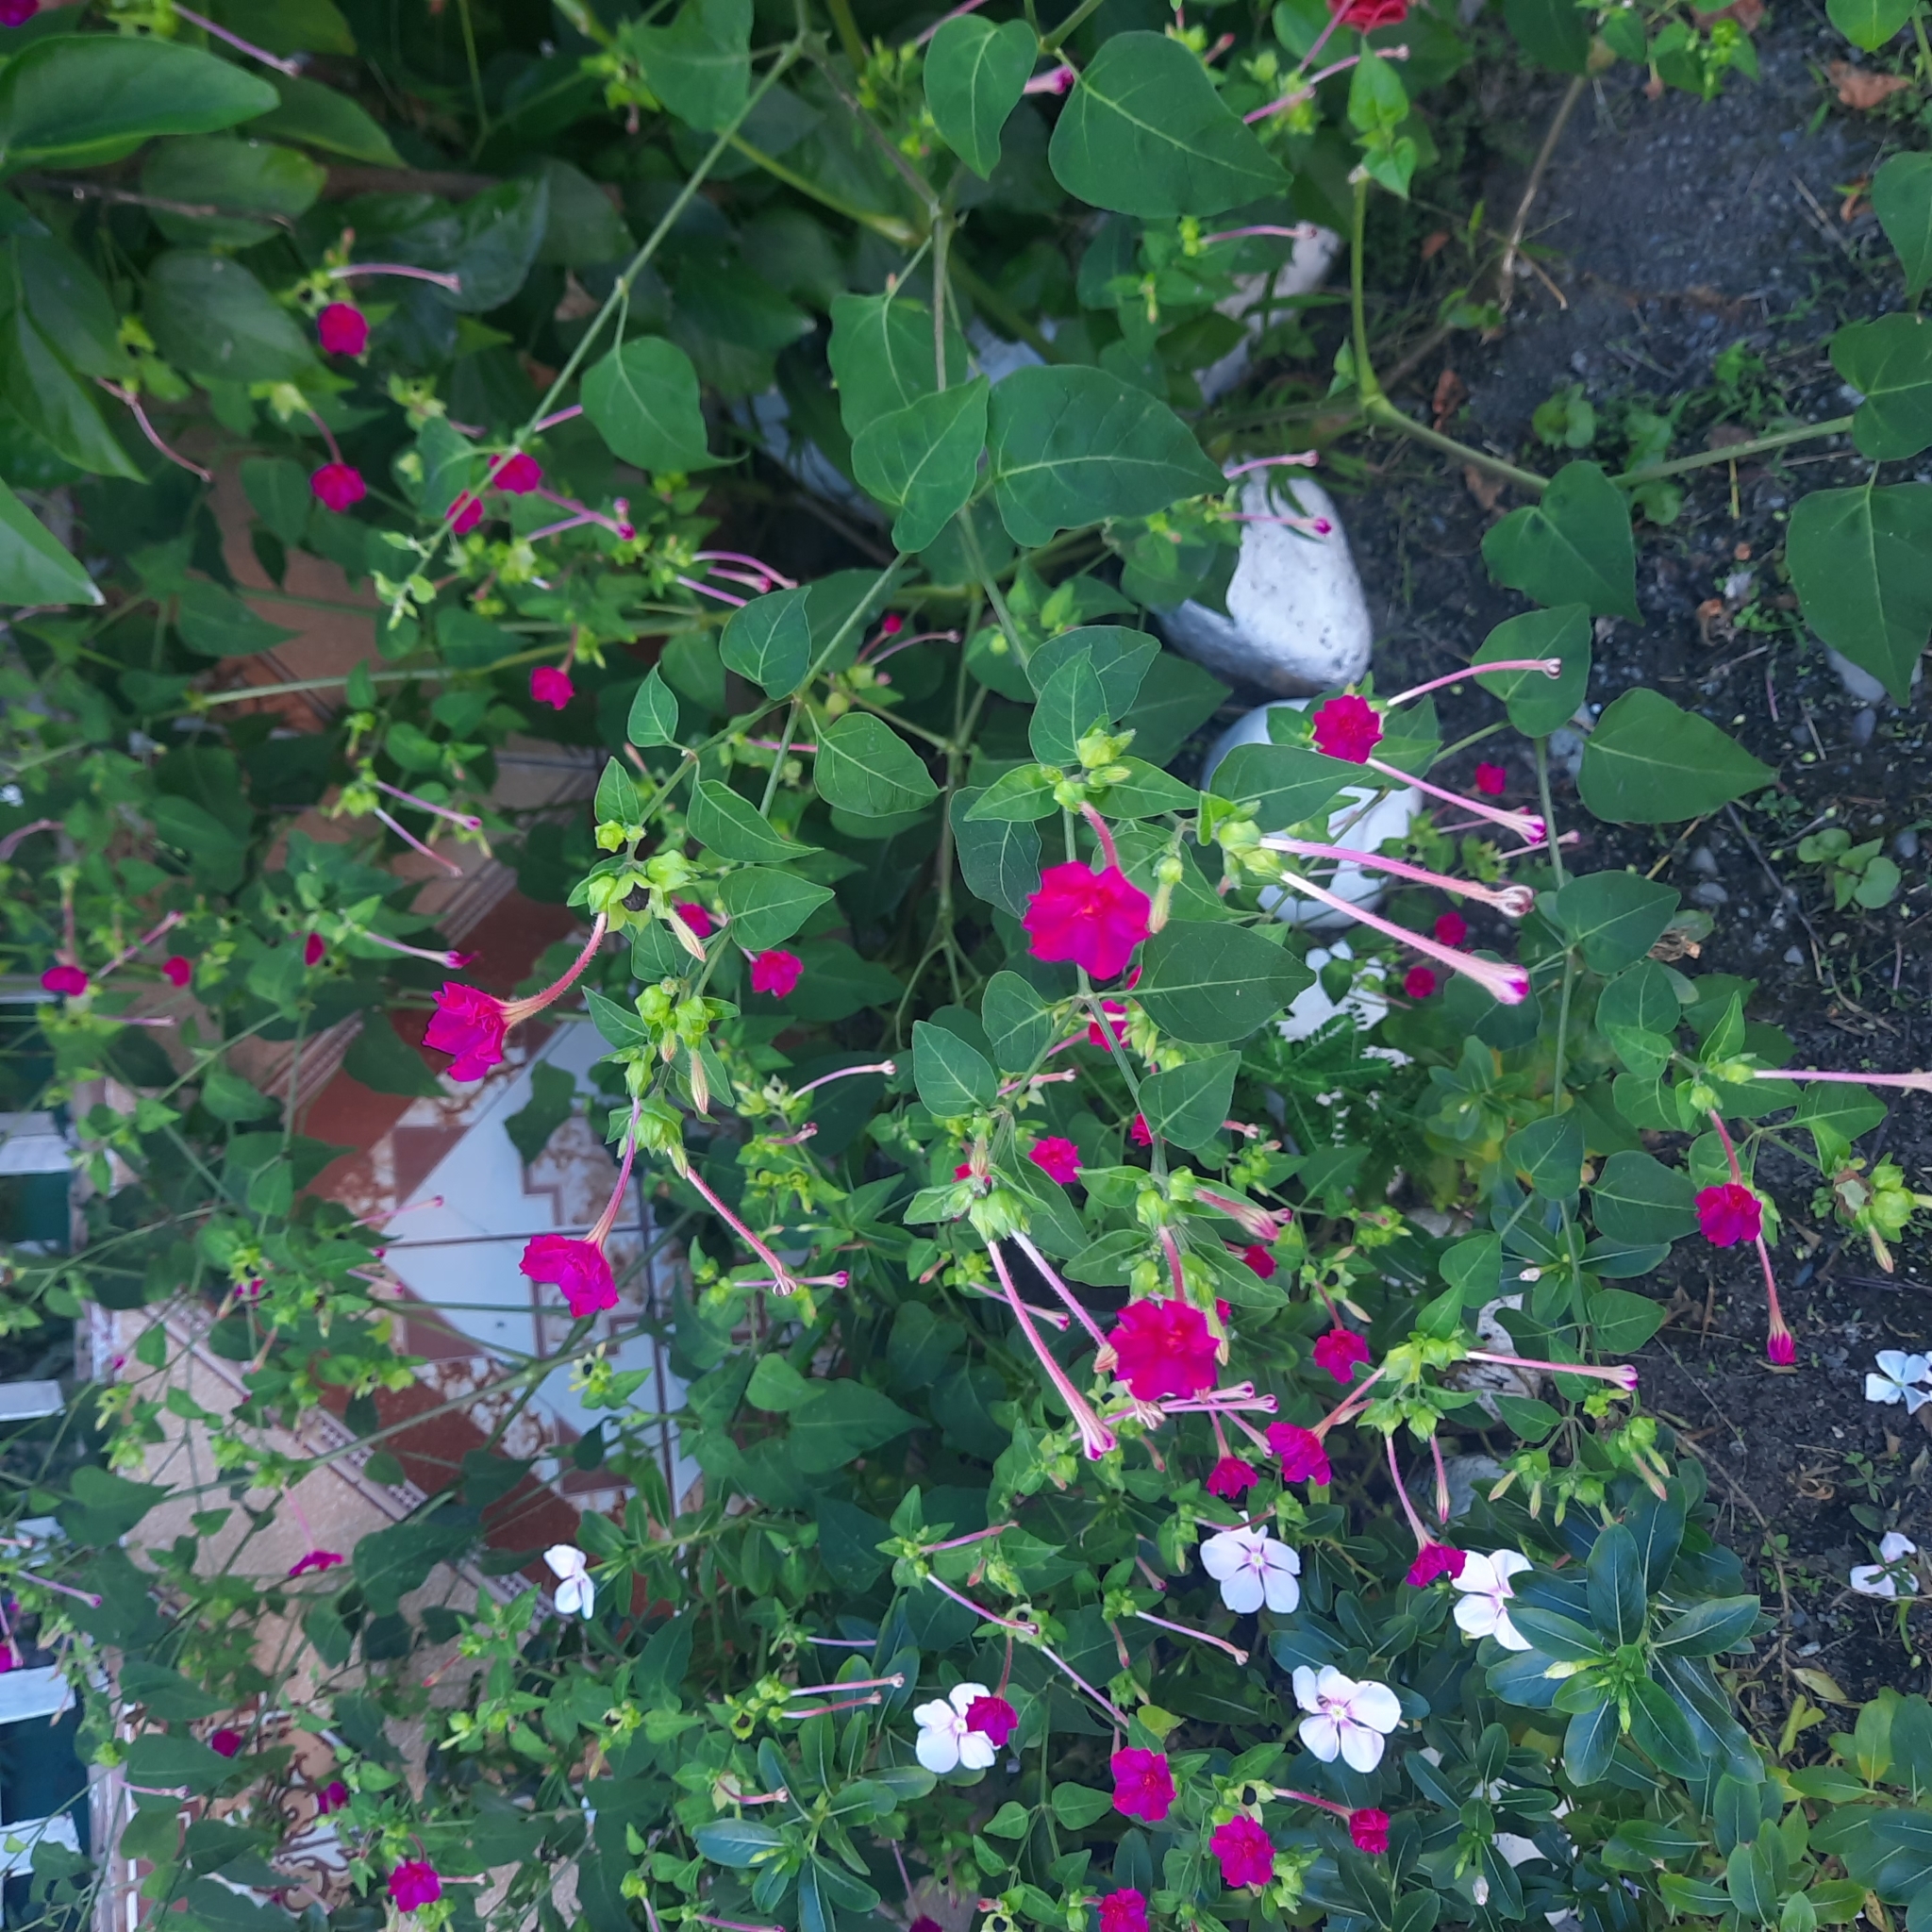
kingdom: Plantae
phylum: Tracheophyta
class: Magnoliopsida
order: Caryophyllales
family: Nyctaginaceae
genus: Mirabilis
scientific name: Mirabilis jalapa
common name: Marvel-of-peru
